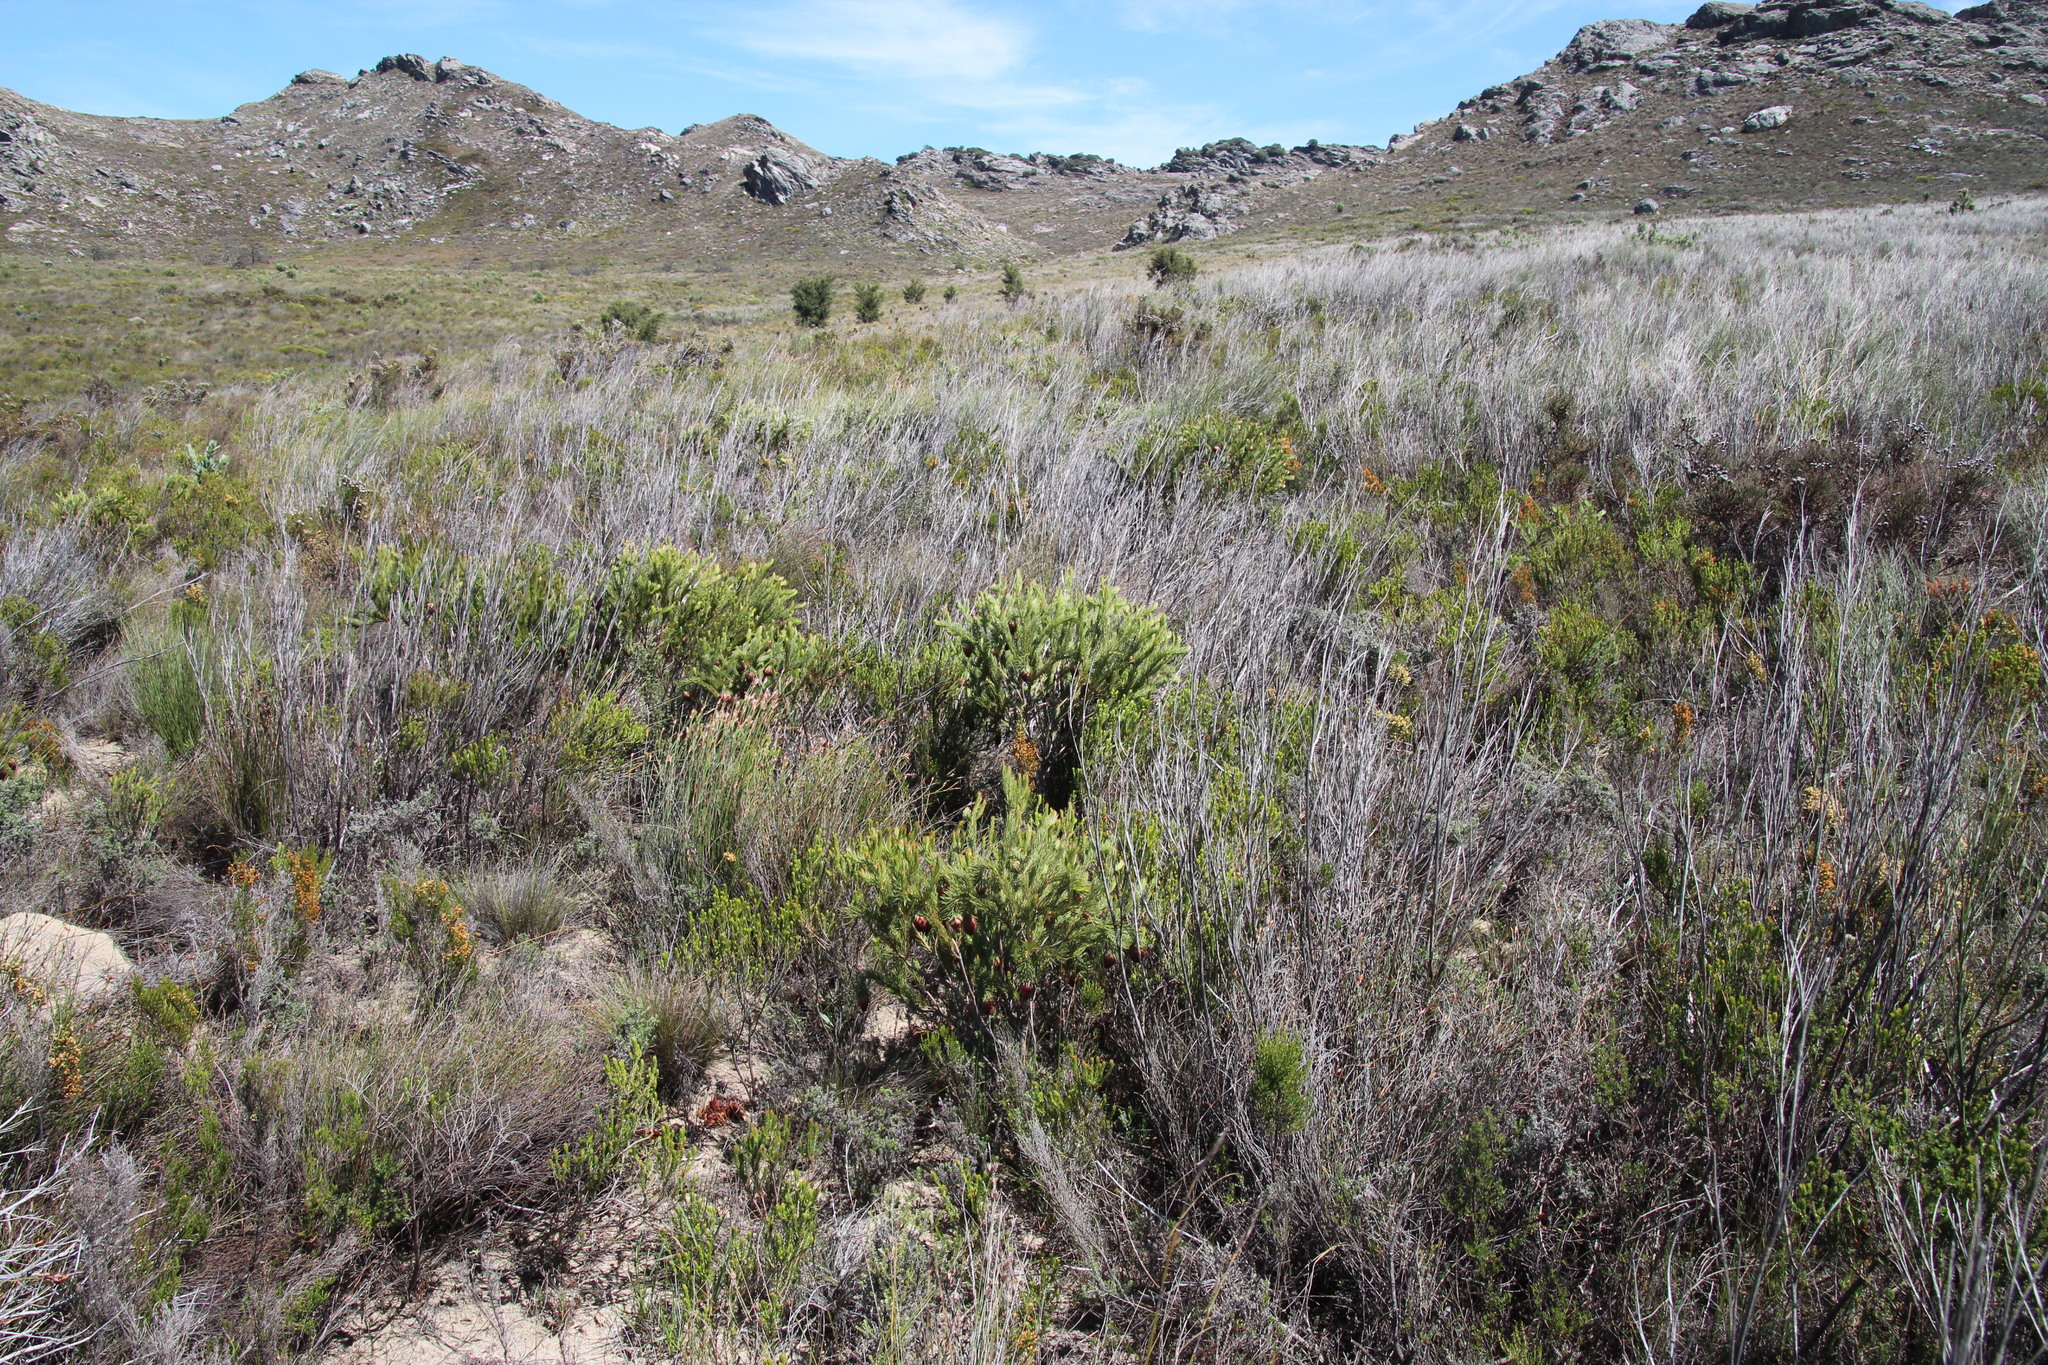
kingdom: Plantae
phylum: Tracheophyta
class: Magnoliopsida
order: Proteales
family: Proteaceae
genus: Protea
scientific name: Protea nana
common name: Mountain rose
